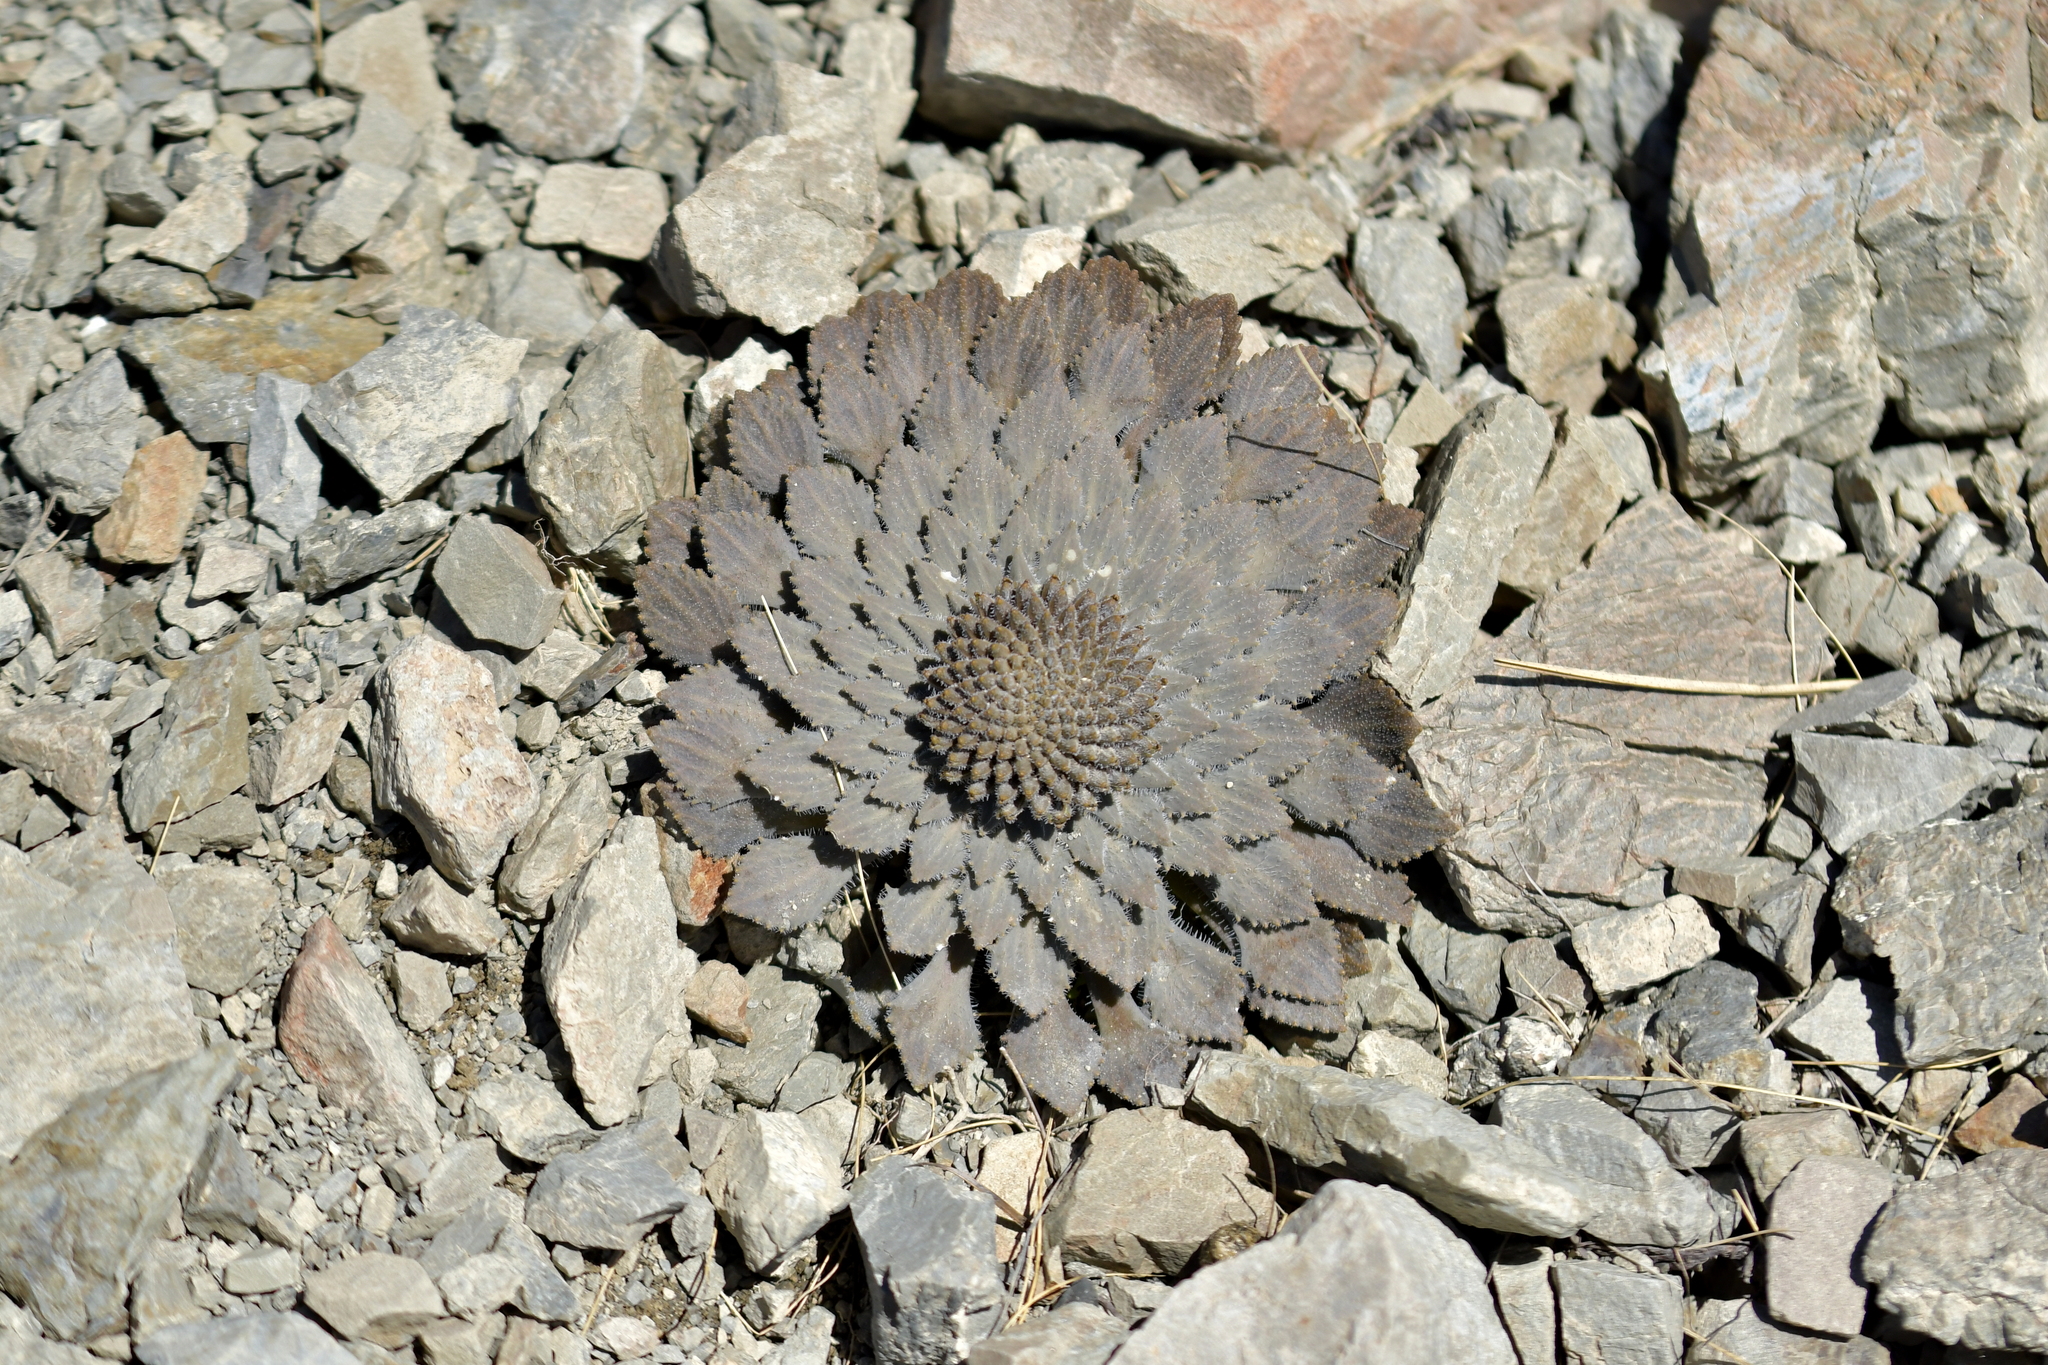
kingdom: Plantae
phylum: Tracheophyta
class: Magnoliopsida
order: Brassicales
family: Brassicaceae
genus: Notothlaspi
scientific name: Notothlaspi rosulatum
